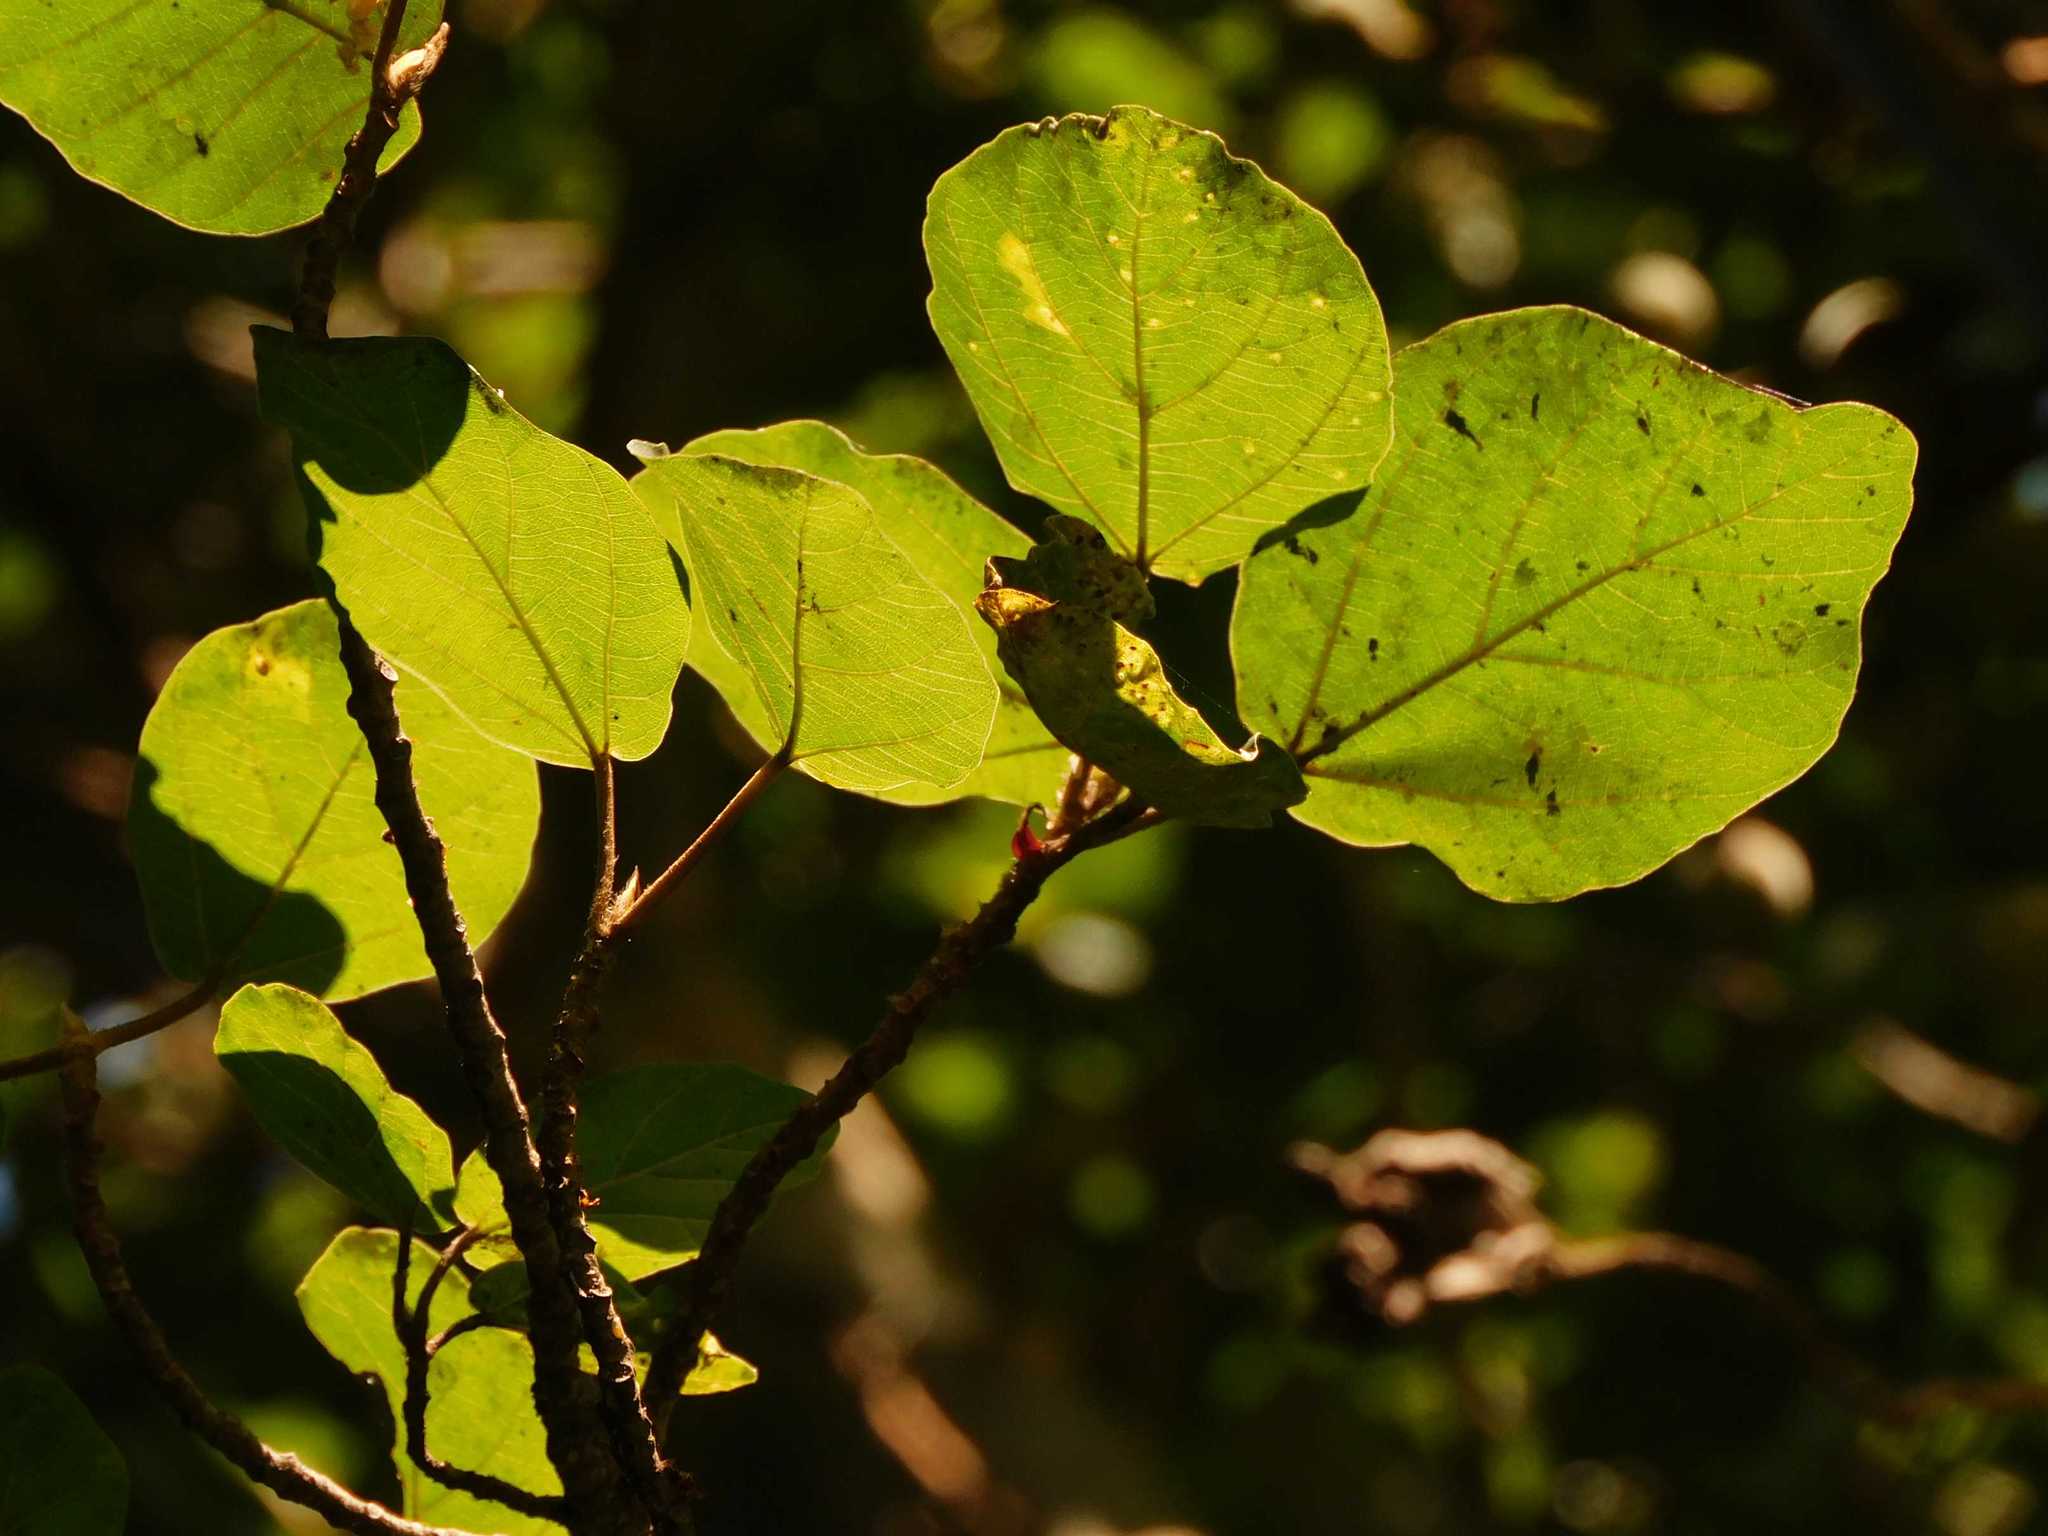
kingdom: Plantae
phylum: Tracheophyta
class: Magnoliopsida
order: Rosales
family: Moraceae
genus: Ficus
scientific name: Ficus sycomorus
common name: Sycomore
